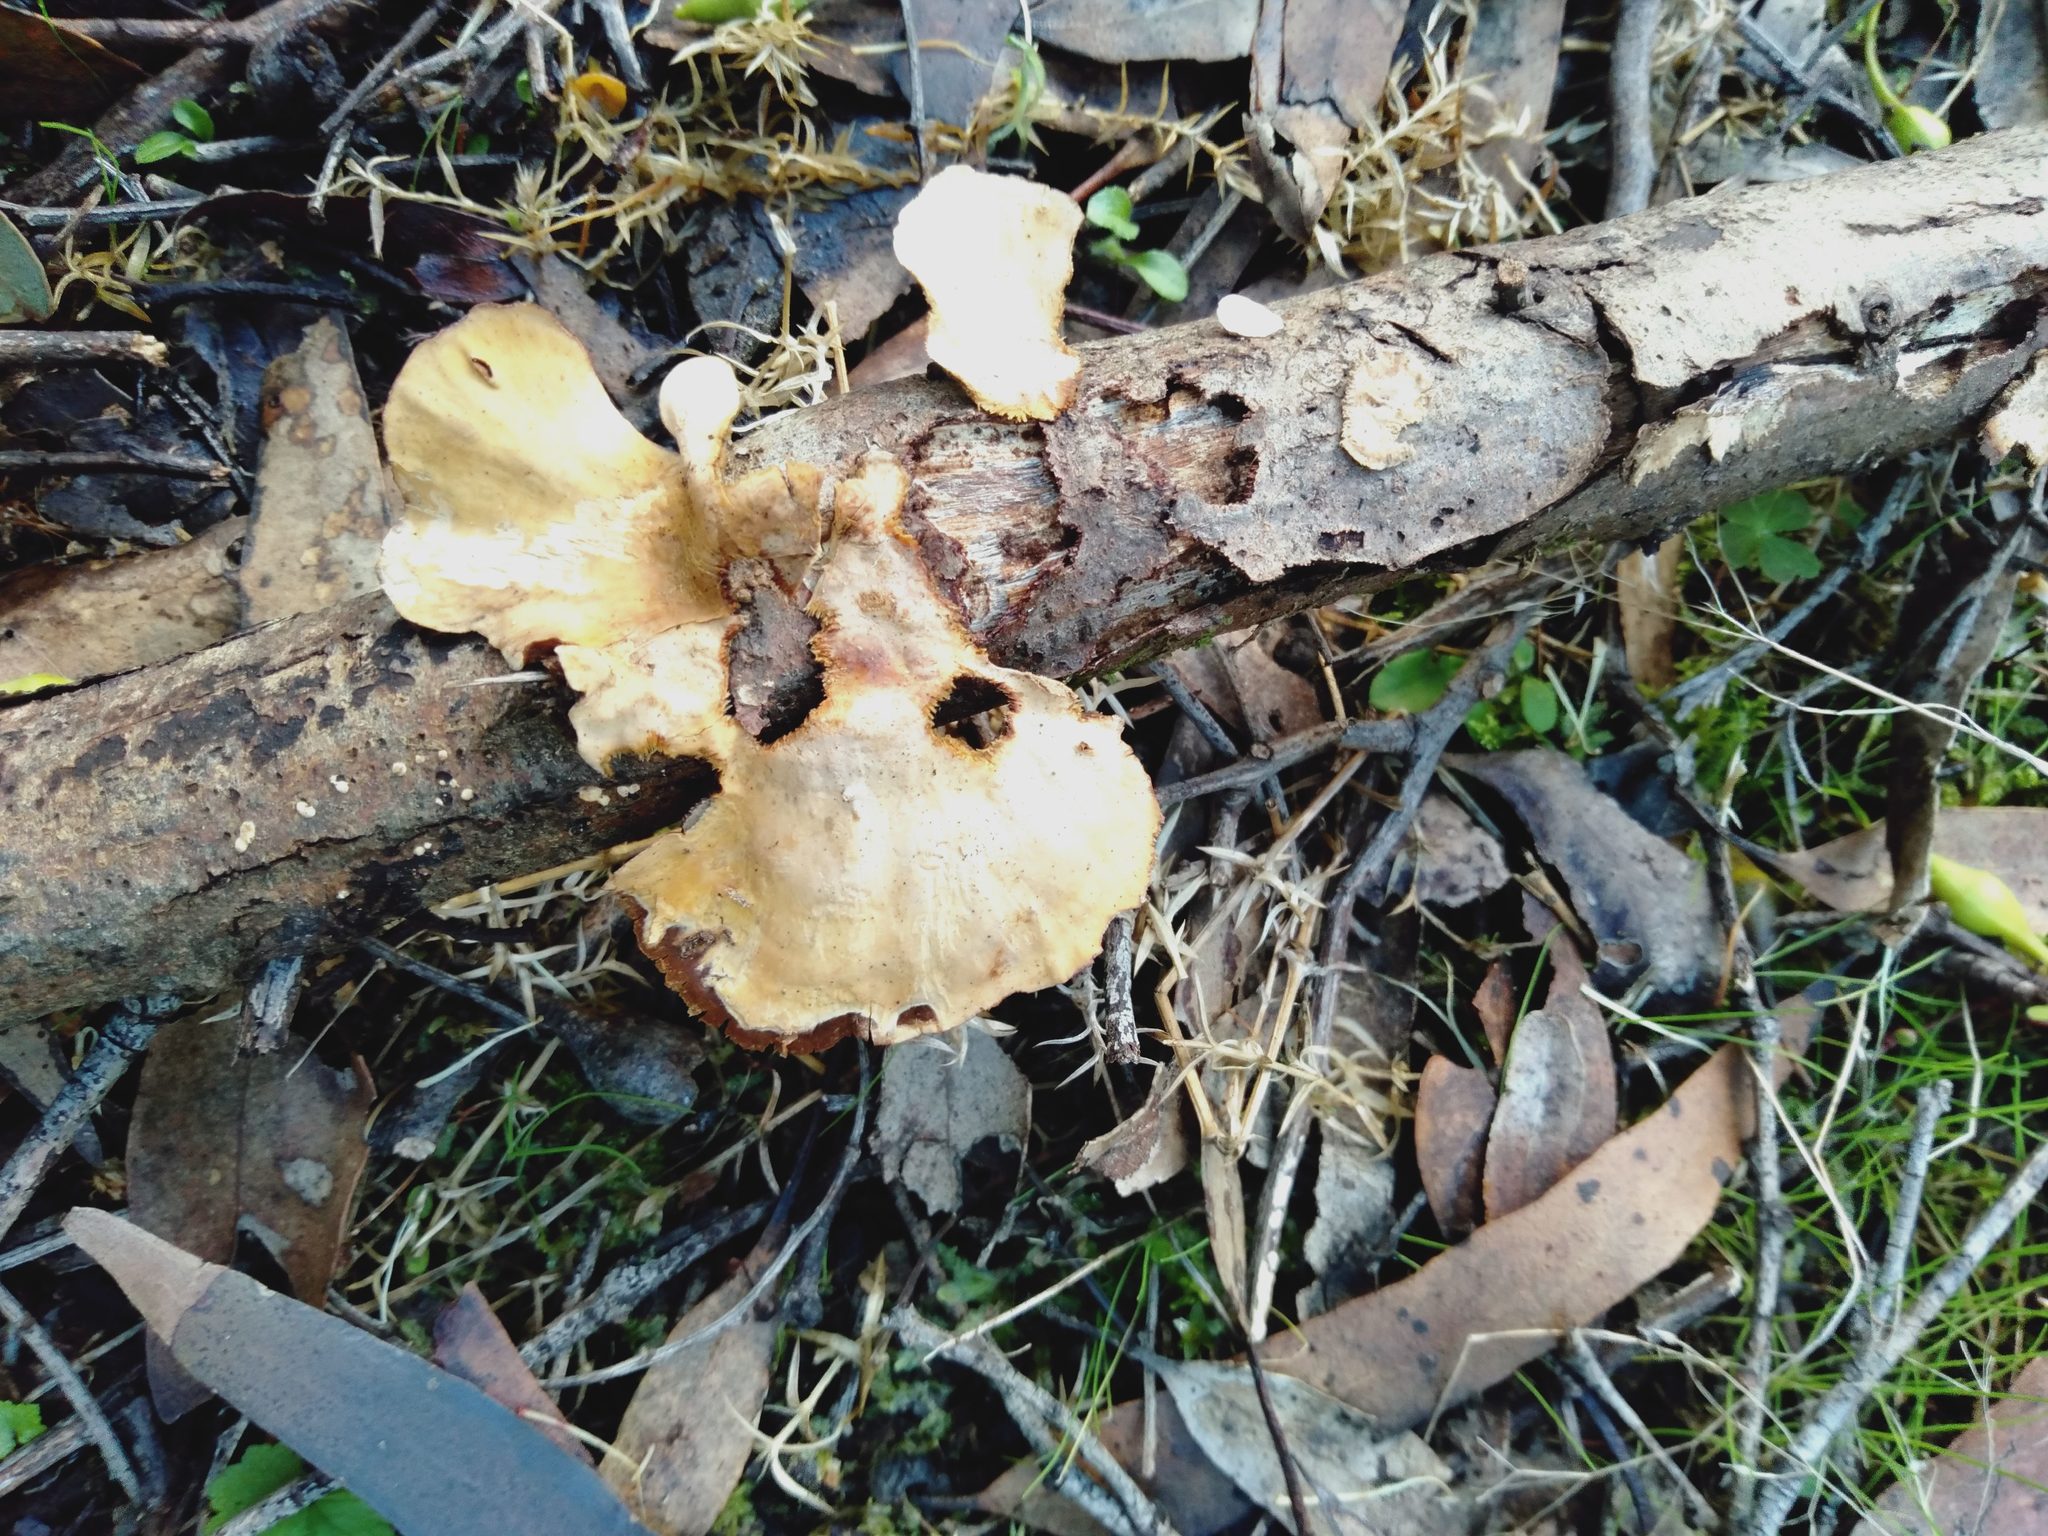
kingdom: Fungi
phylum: Basidiomycota
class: Agaricomycetes
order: Russulales
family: Stereaceae
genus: Stereum
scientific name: Stereum ostrea
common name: False turkeytail
